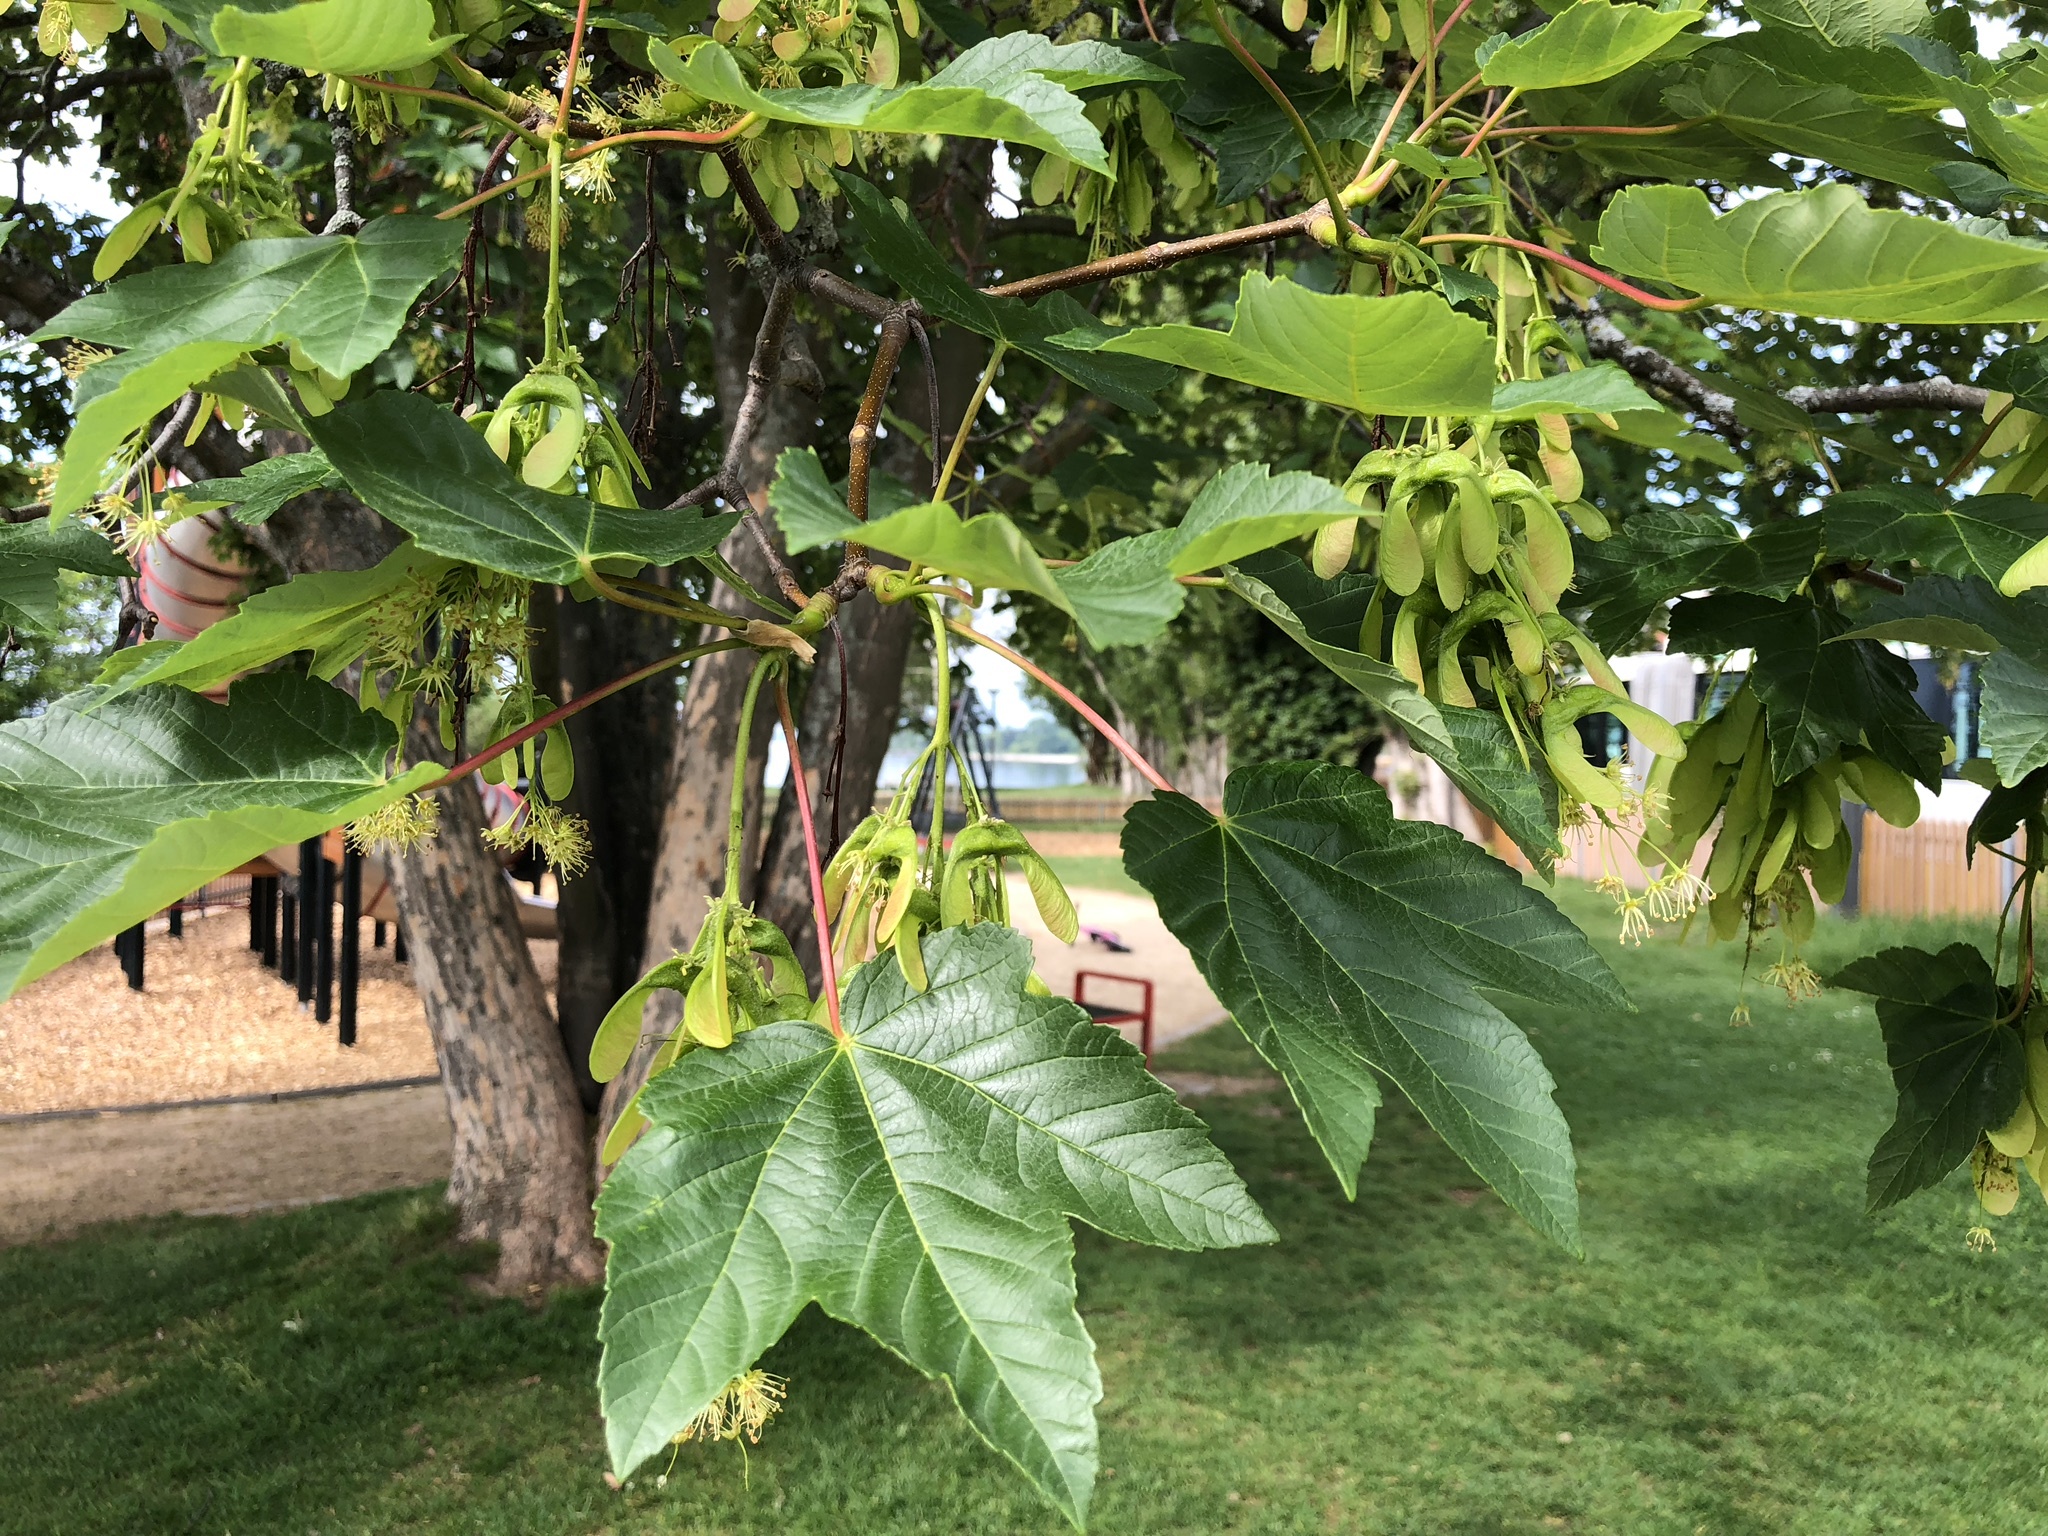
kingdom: Plantae
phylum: Tracheophyta
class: Magnoliopsida
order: Sapindales
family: Sapindaceae
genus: Acer
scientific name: Acer pseudoplatanus
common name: Sycamore
